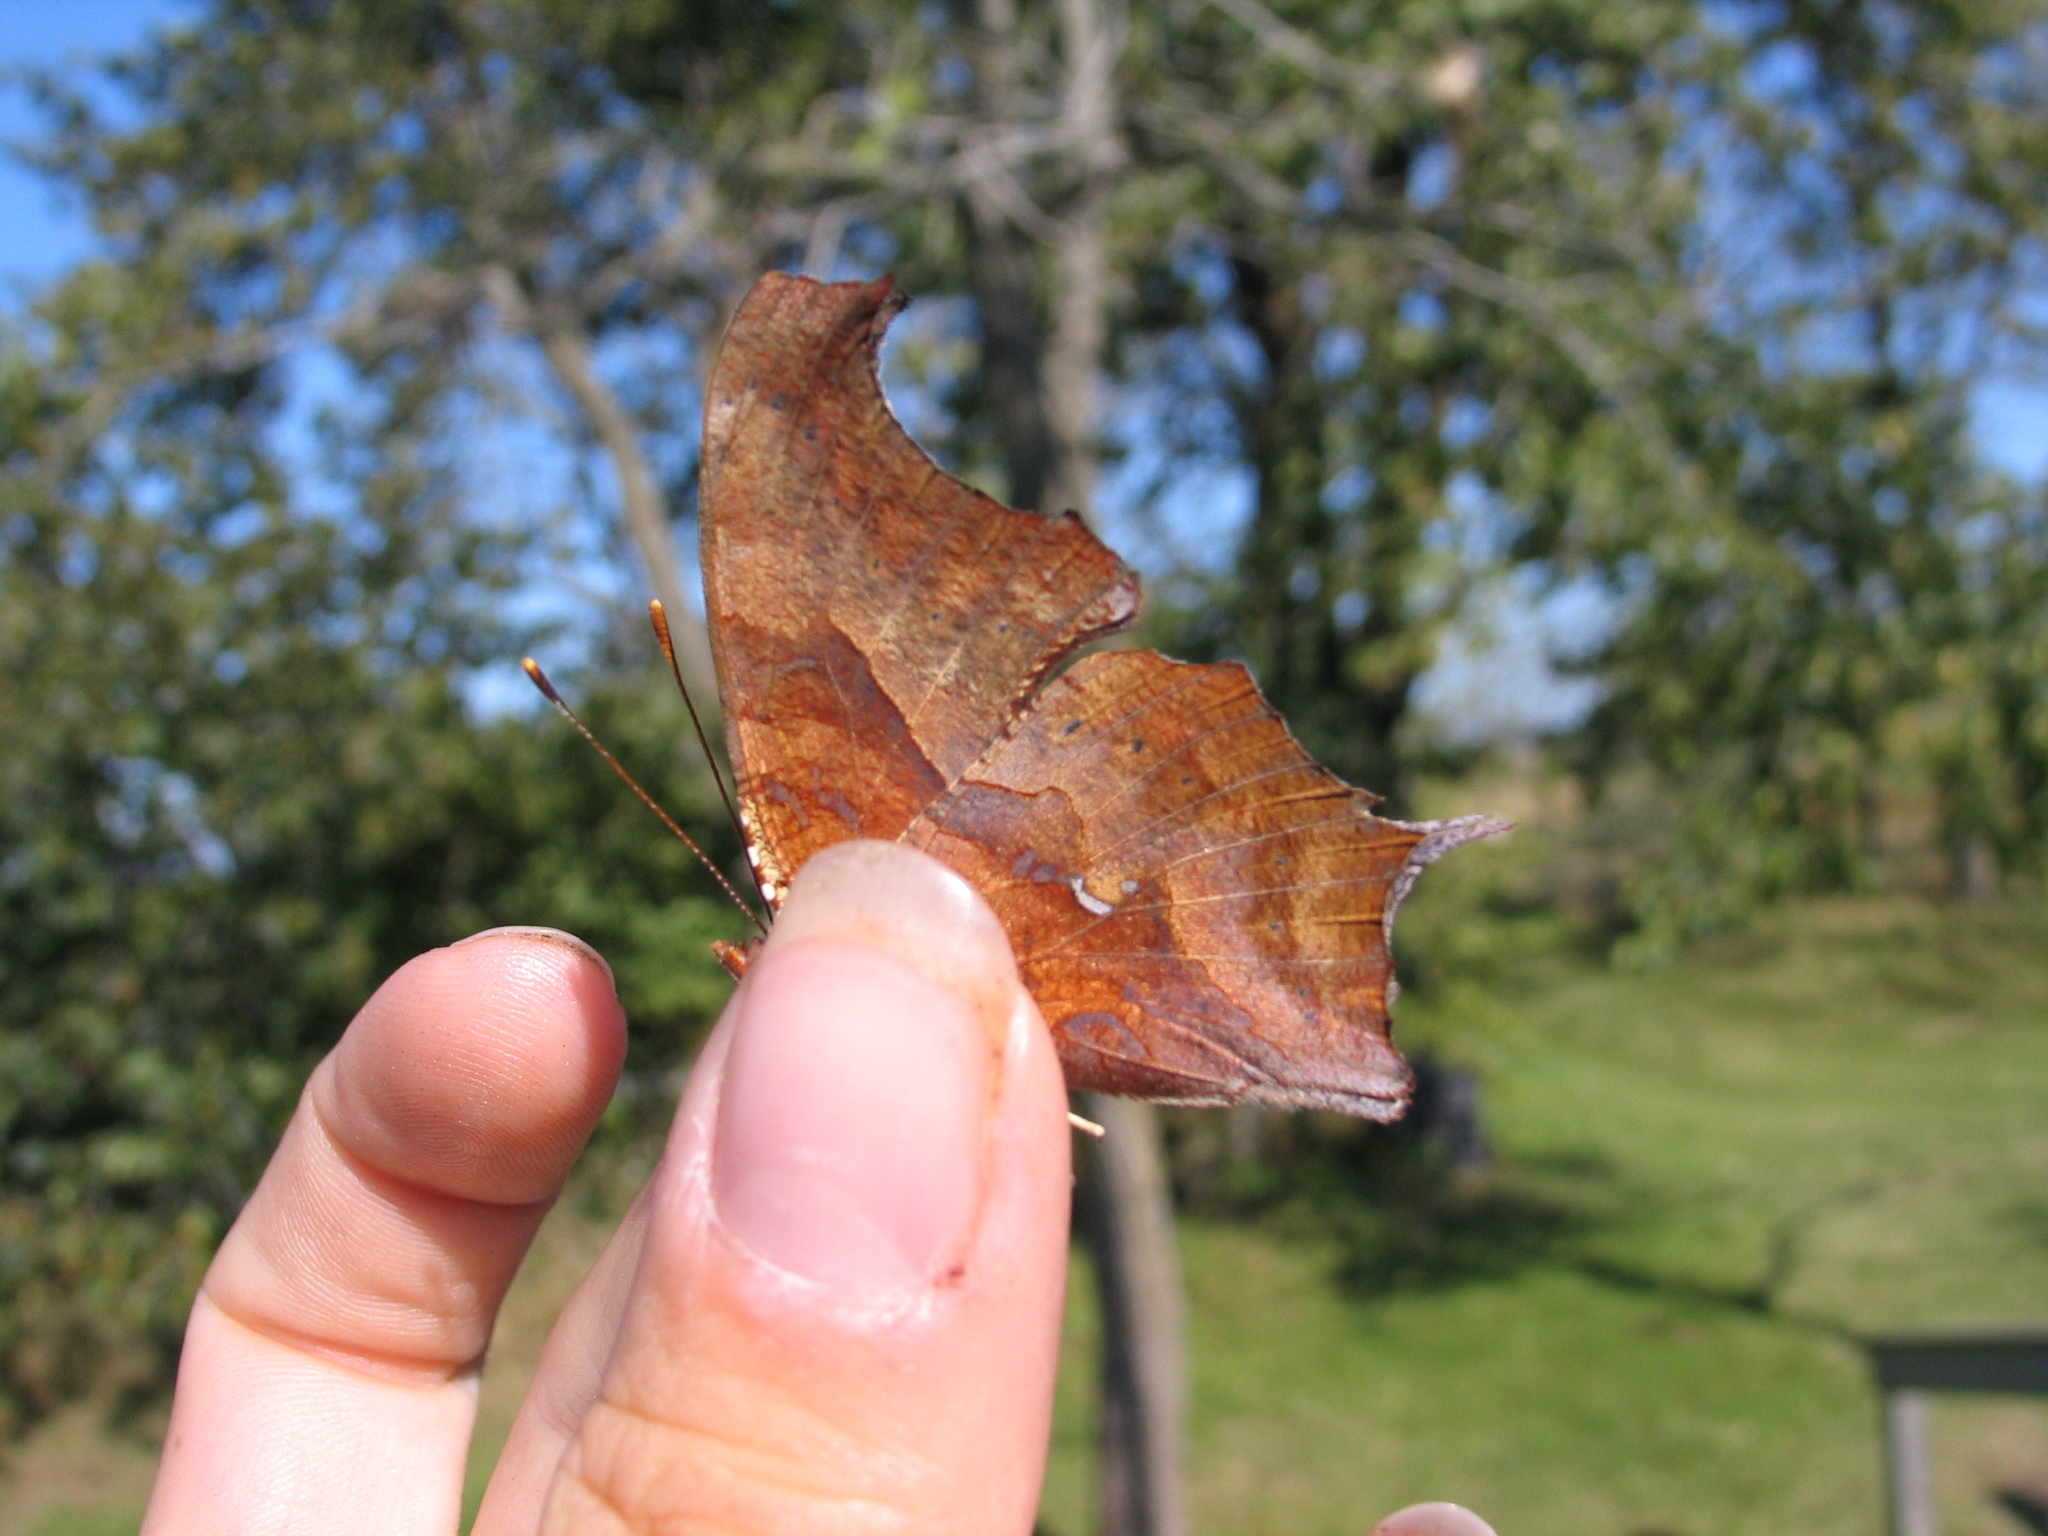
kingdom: Animalia
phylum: Arthropoda
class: Insecta
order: Lepidoptera
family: Nymphalidae
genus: Polygonia
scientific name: Polygonia interrogationis
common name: Question mark
